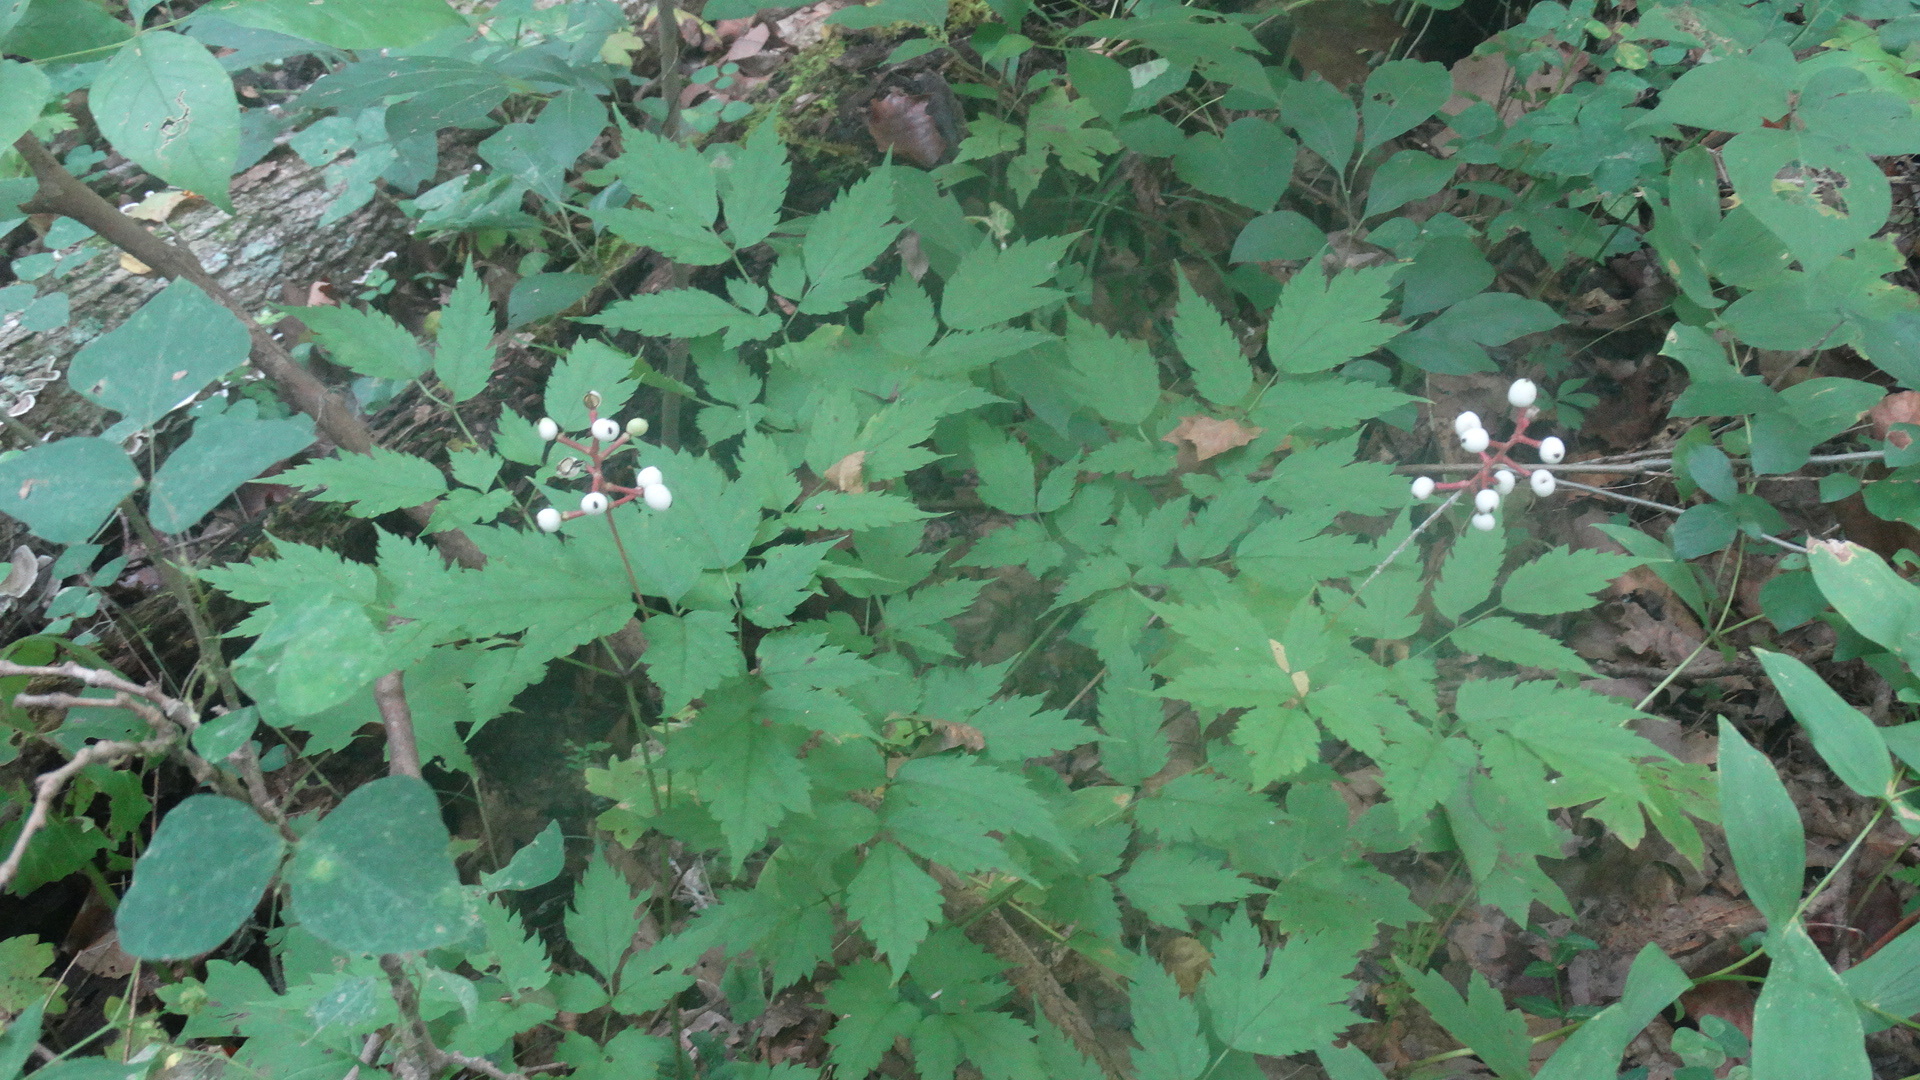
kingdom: Plantae
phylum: Tracheophyta
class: Magnoliopsida
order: Ranunculales
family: Ranunculaceae
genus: Actaea
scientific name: Actaea pachypoda
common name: Doll's-eyes
